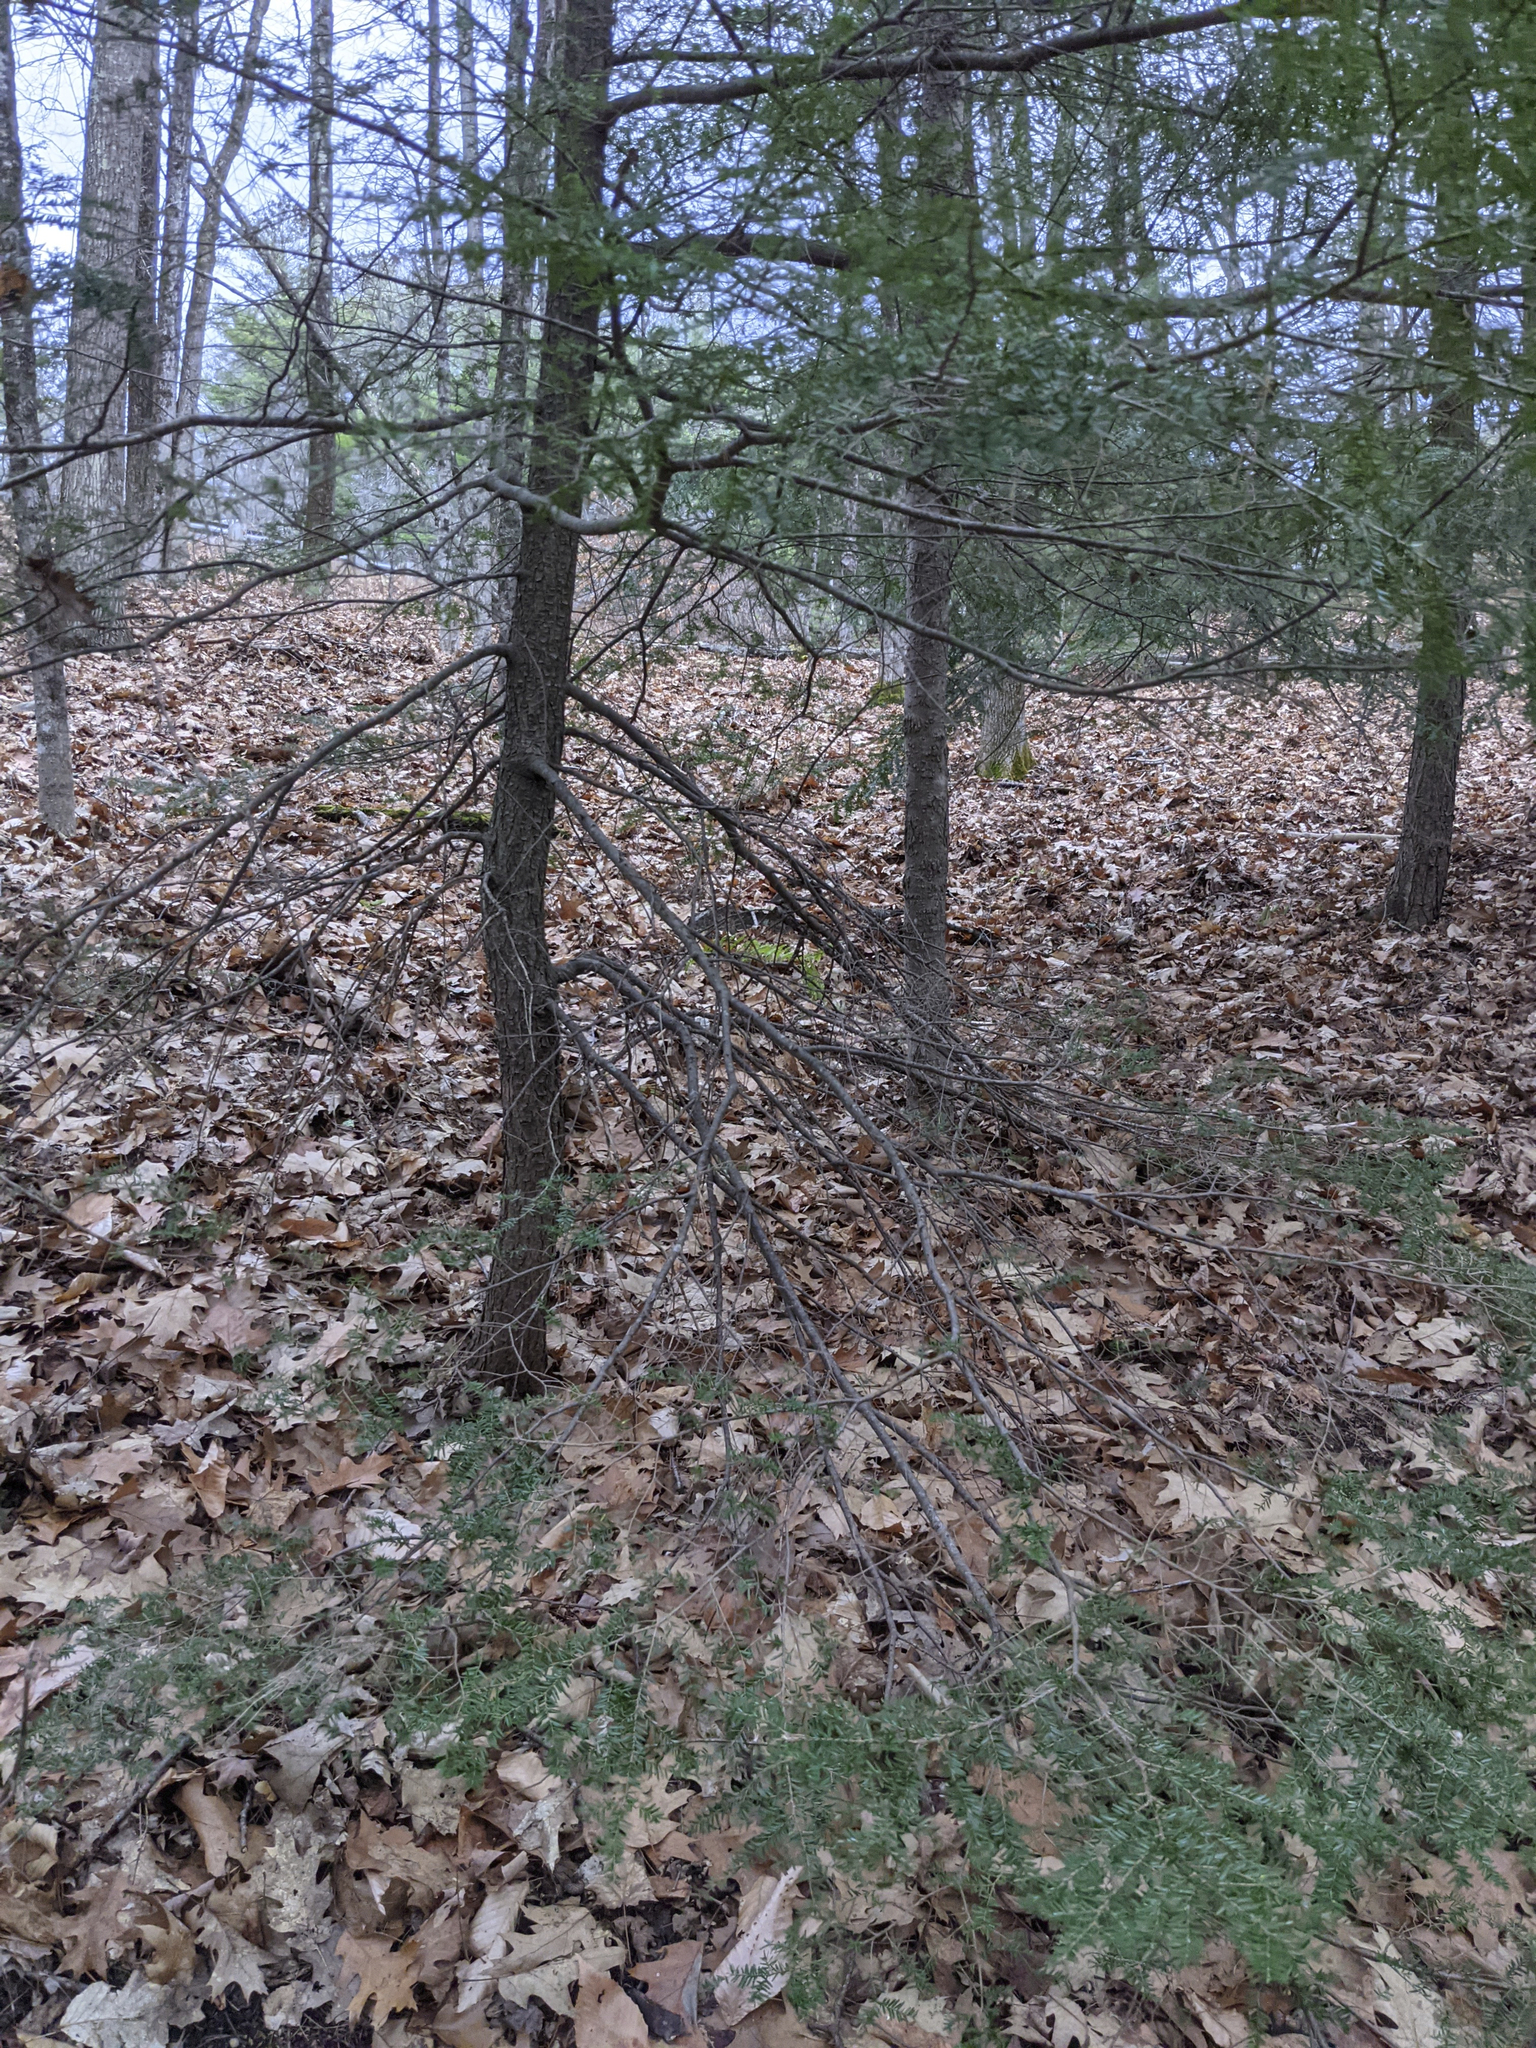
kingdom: Plantae
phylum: Tracheophyta
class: Pinopsida
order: Pinales
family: Pinaceae
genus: Tsuga
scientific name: Tsuga canadensis
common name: Eastern hemlock
